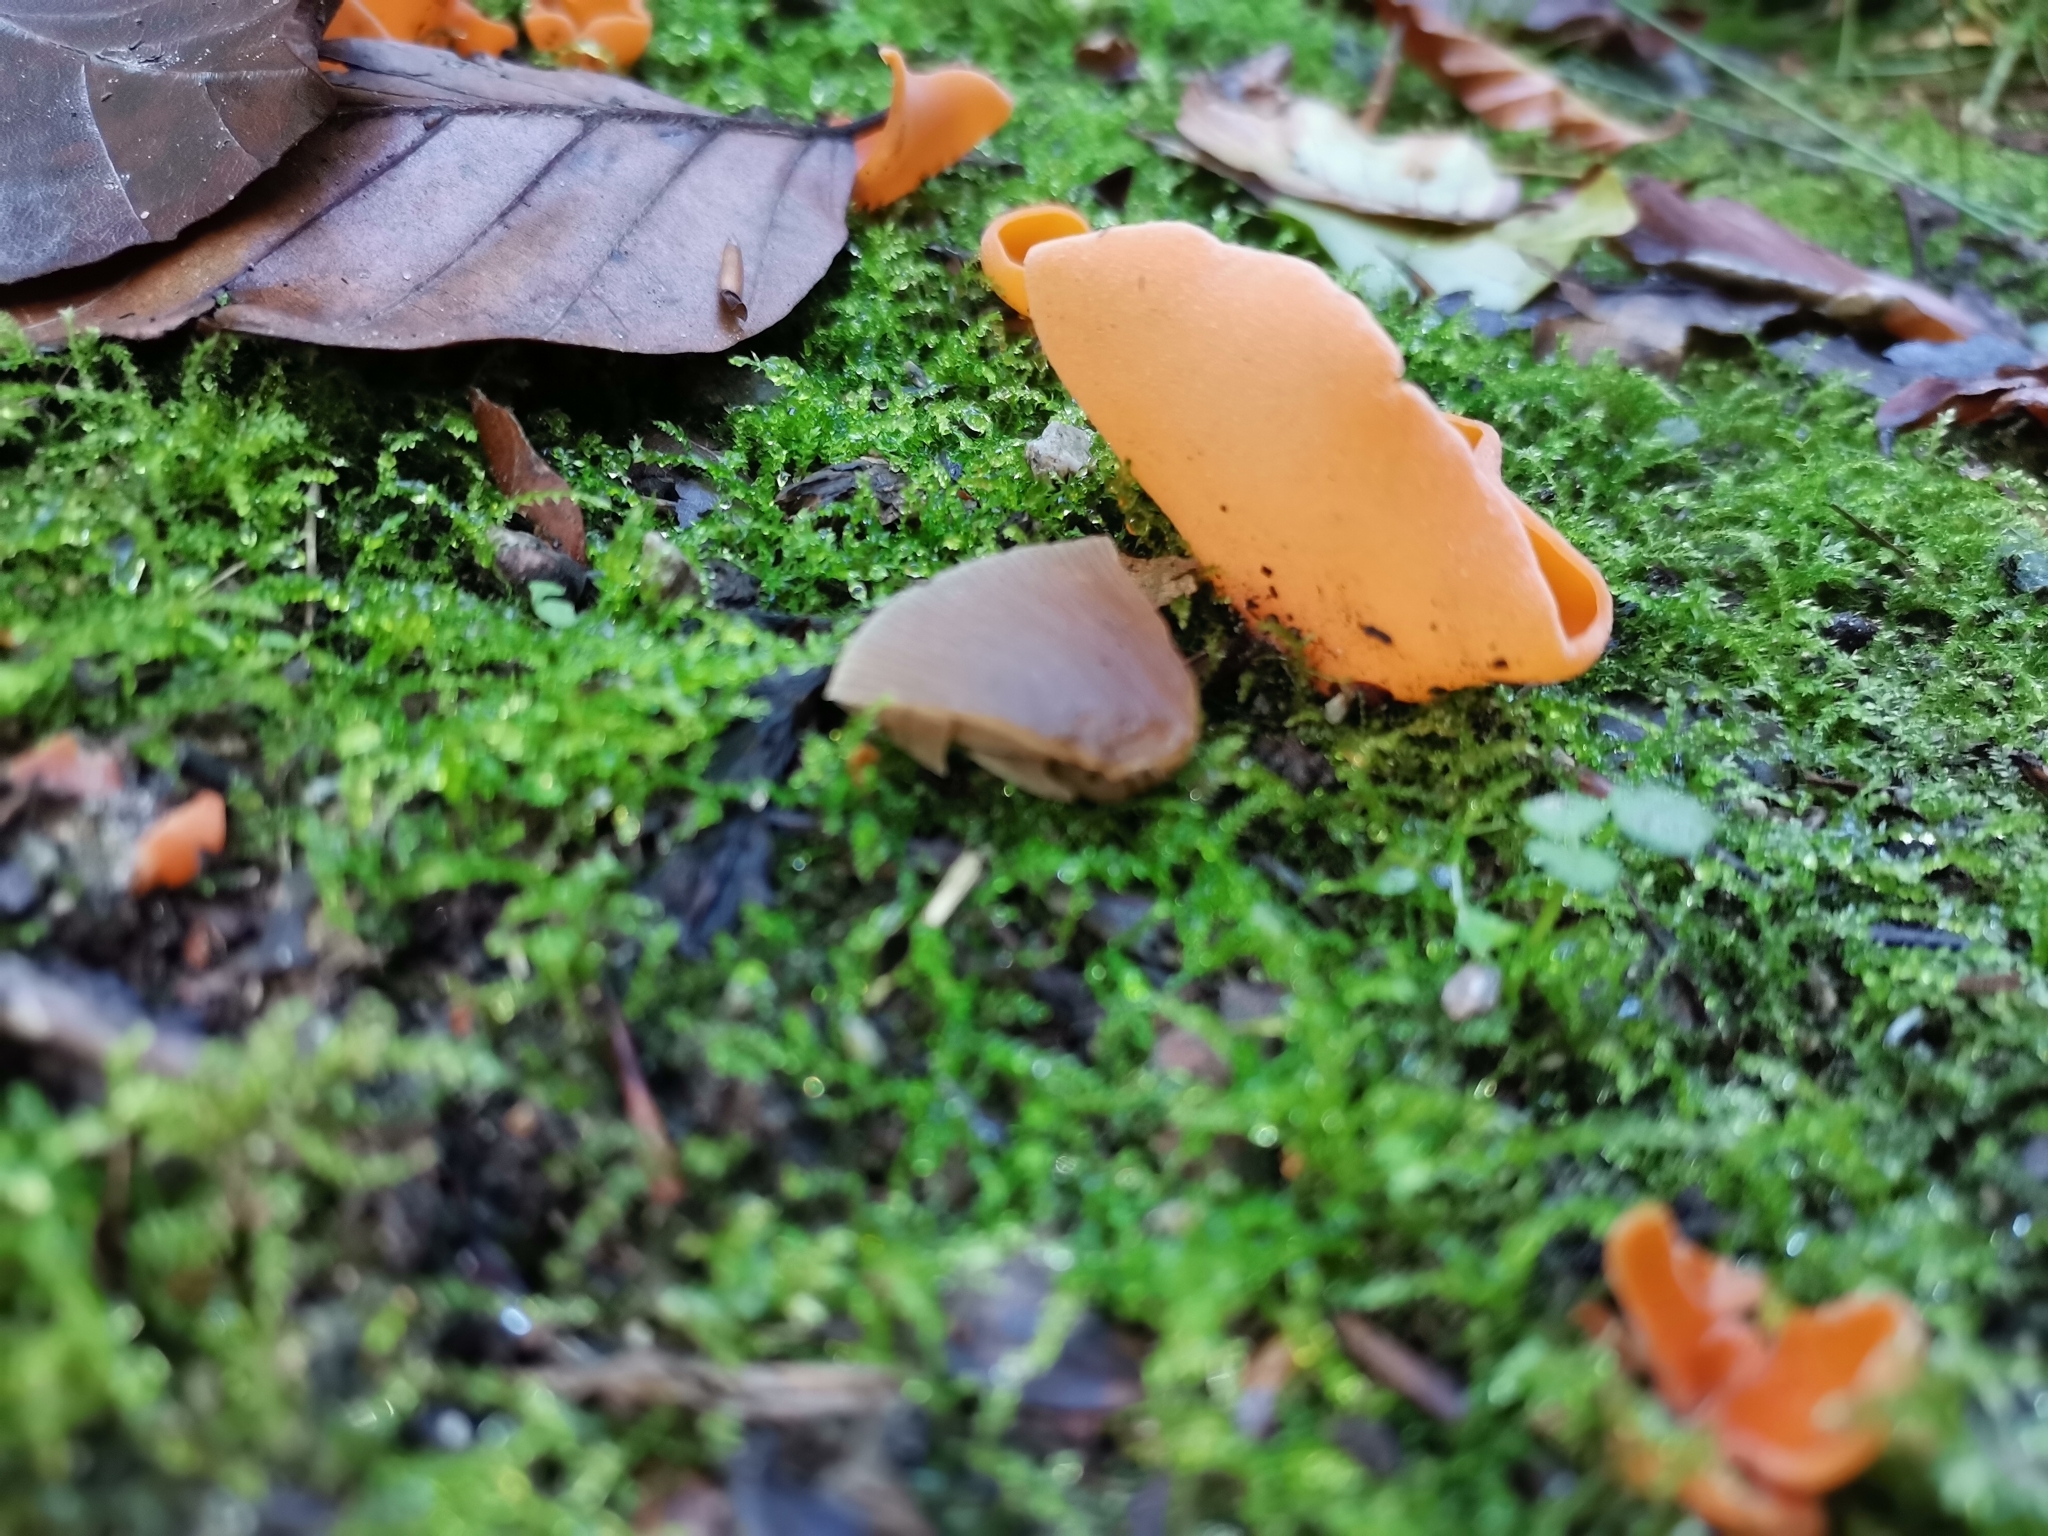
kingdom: Fungi
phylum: Ascomycota
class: Pezizomycetes
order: Pezizales
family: Pyronemataceae
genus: Aleuria
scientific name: Aleuria aurantia
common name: Orange peel fungus
